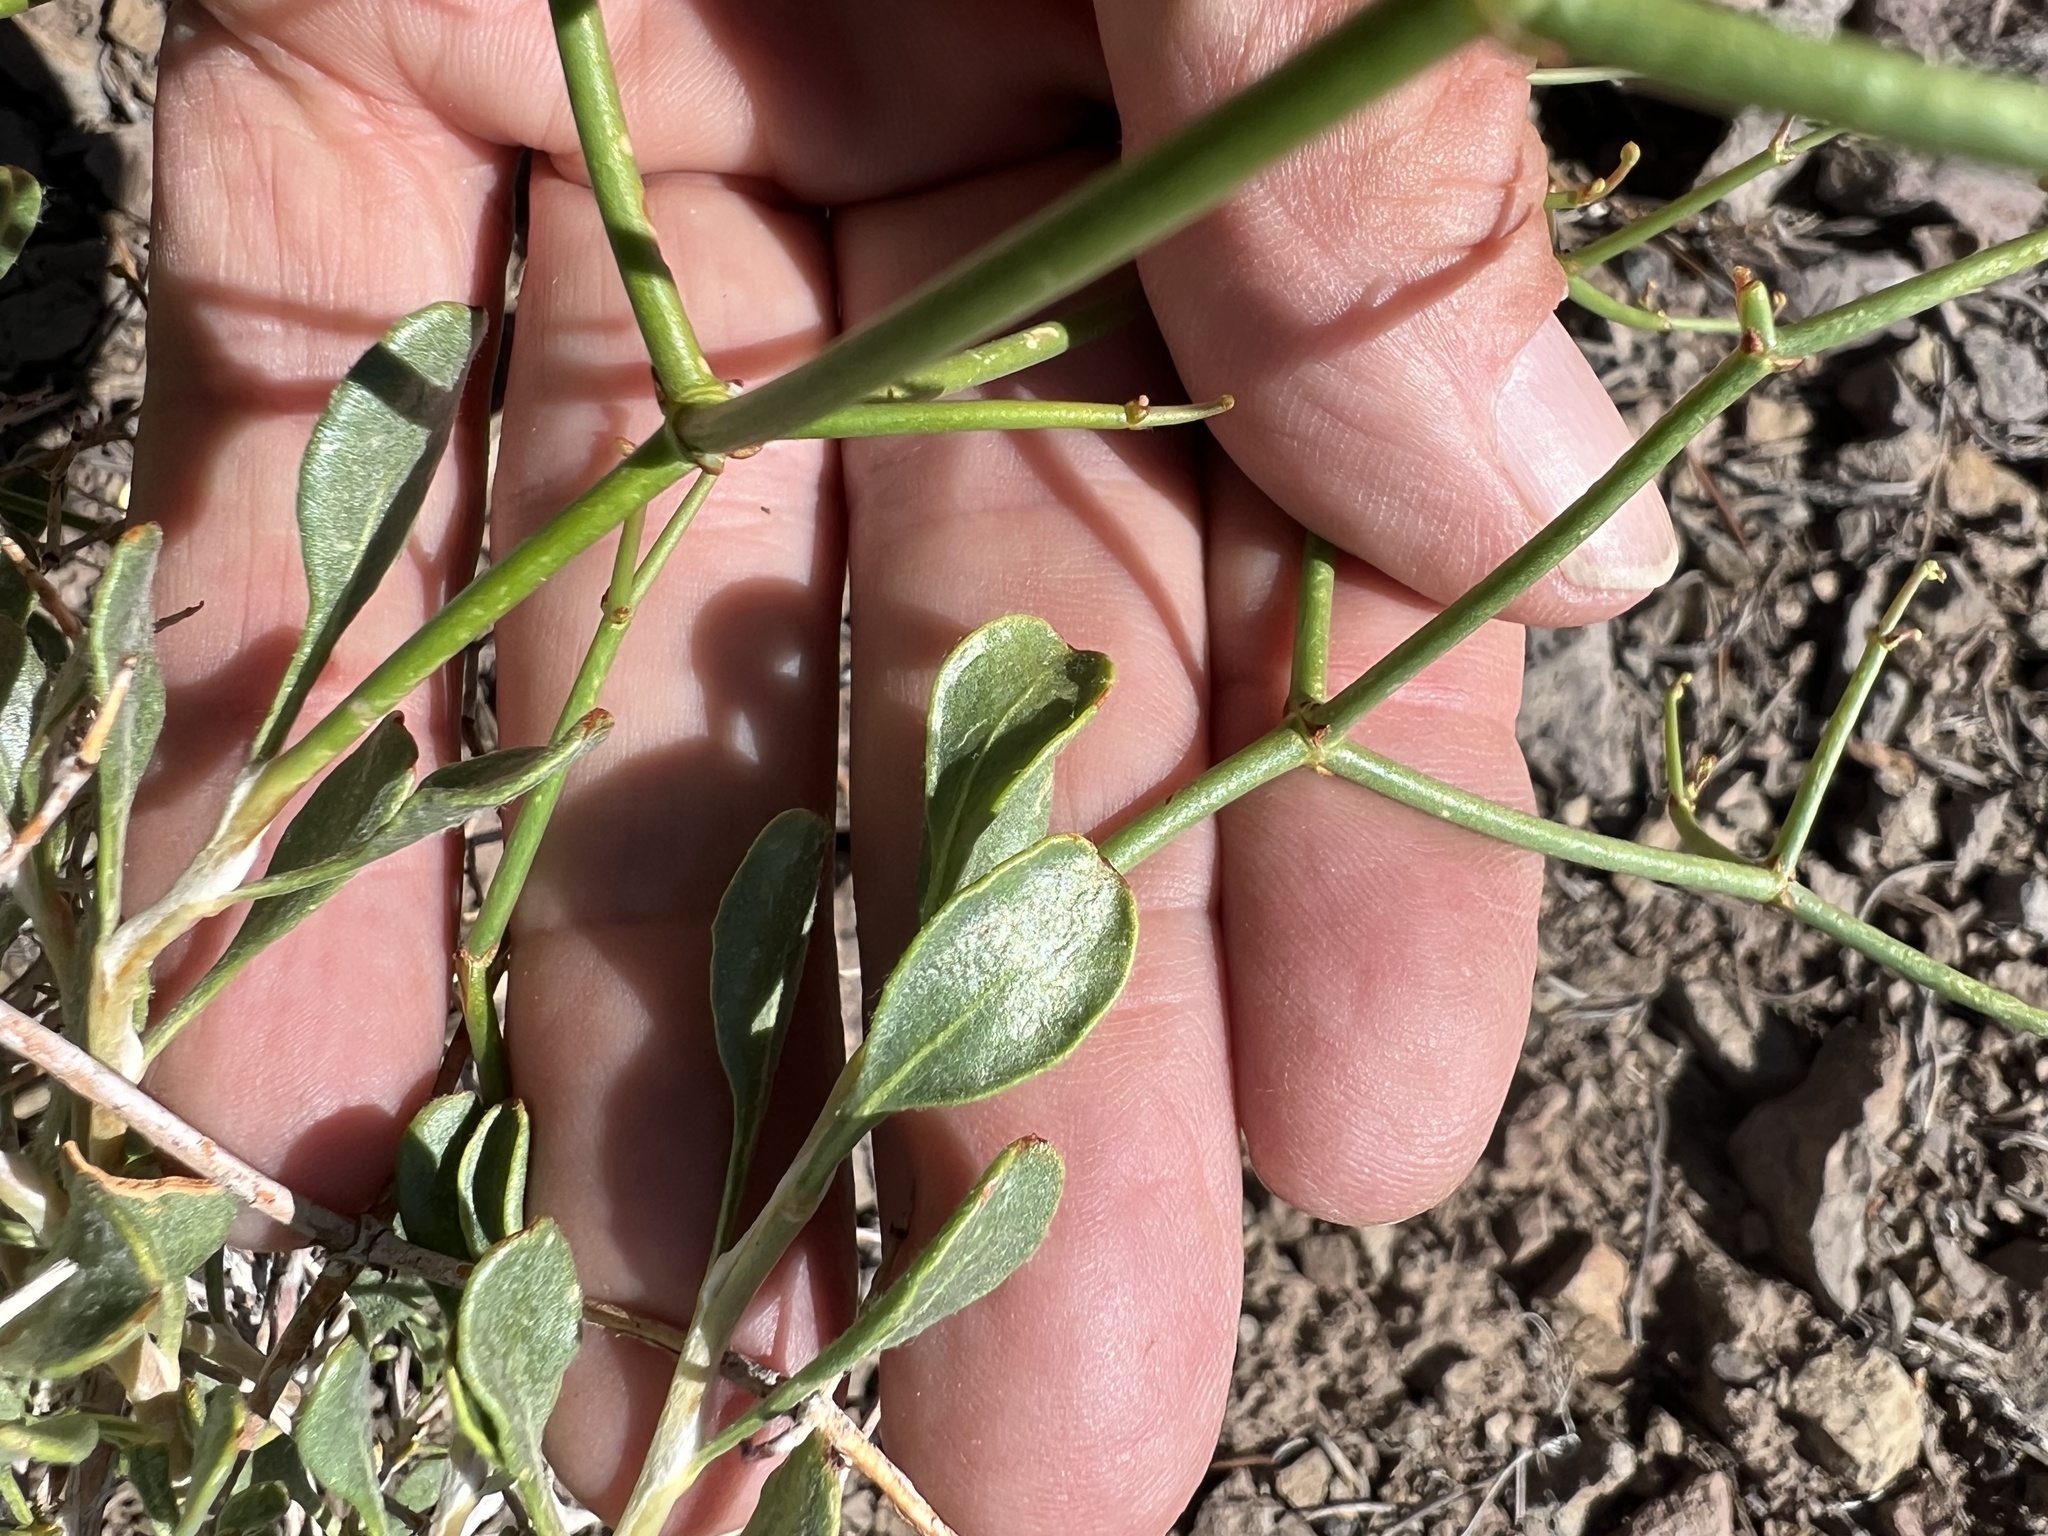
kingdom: Plantae
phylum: Tracheophyta
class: Magnoliopsida
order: Caryophyllales
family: Polygonaceae
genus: Eriogonum
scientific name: Eriogonum heermannii
